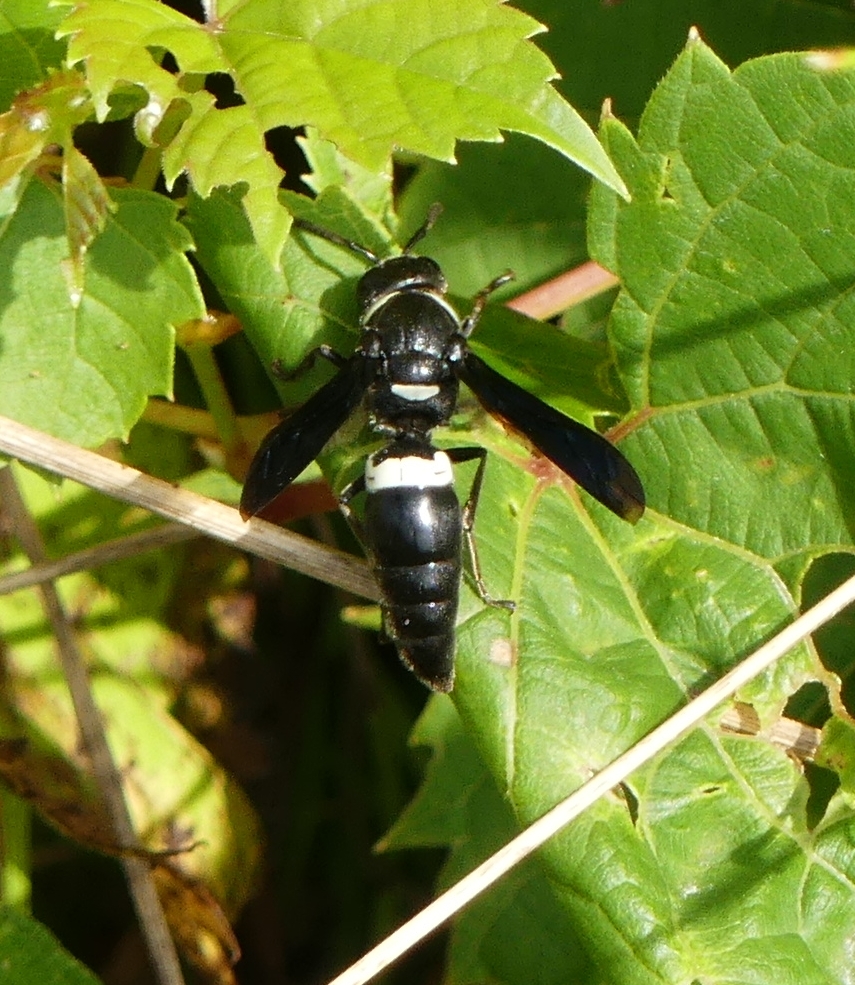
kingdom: Animalia
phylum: Arthropoda
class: Insecta
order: Hymenoptera
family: Eumenidae
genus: Monobia
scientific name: Monobia quadridens
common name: Four-toothed mason wasp
